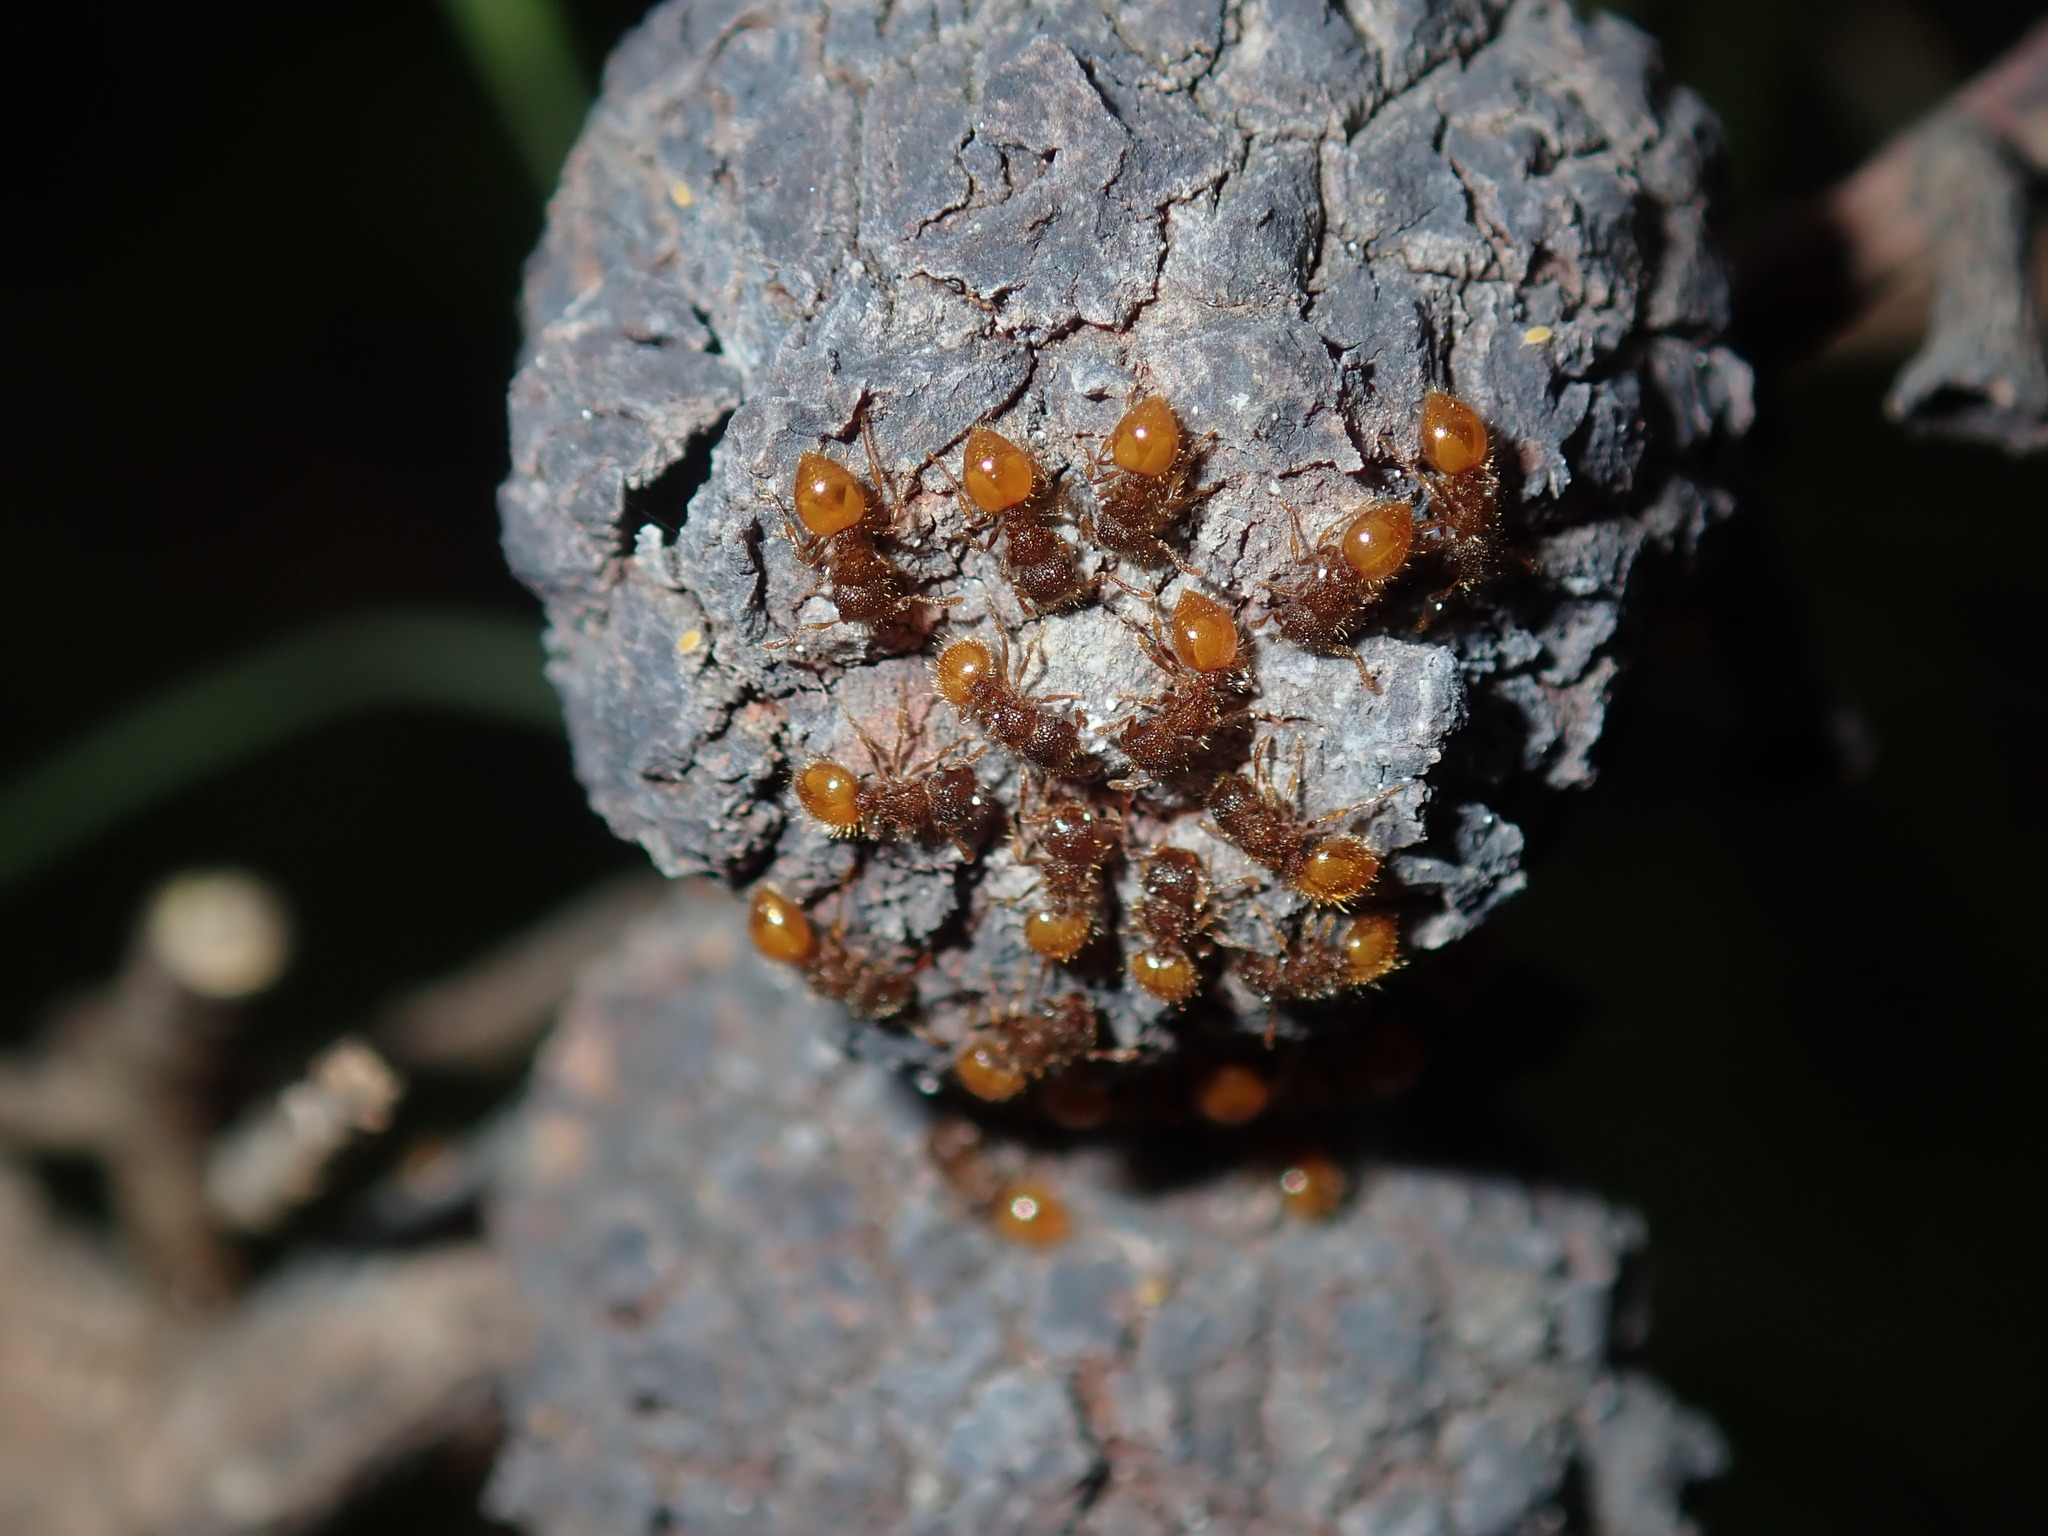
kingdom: Animalia
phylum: Arthropoda
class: Insecta
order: Hymenoptera
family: Formicidae
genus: Meranoplus
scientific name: Meranoplus minor
